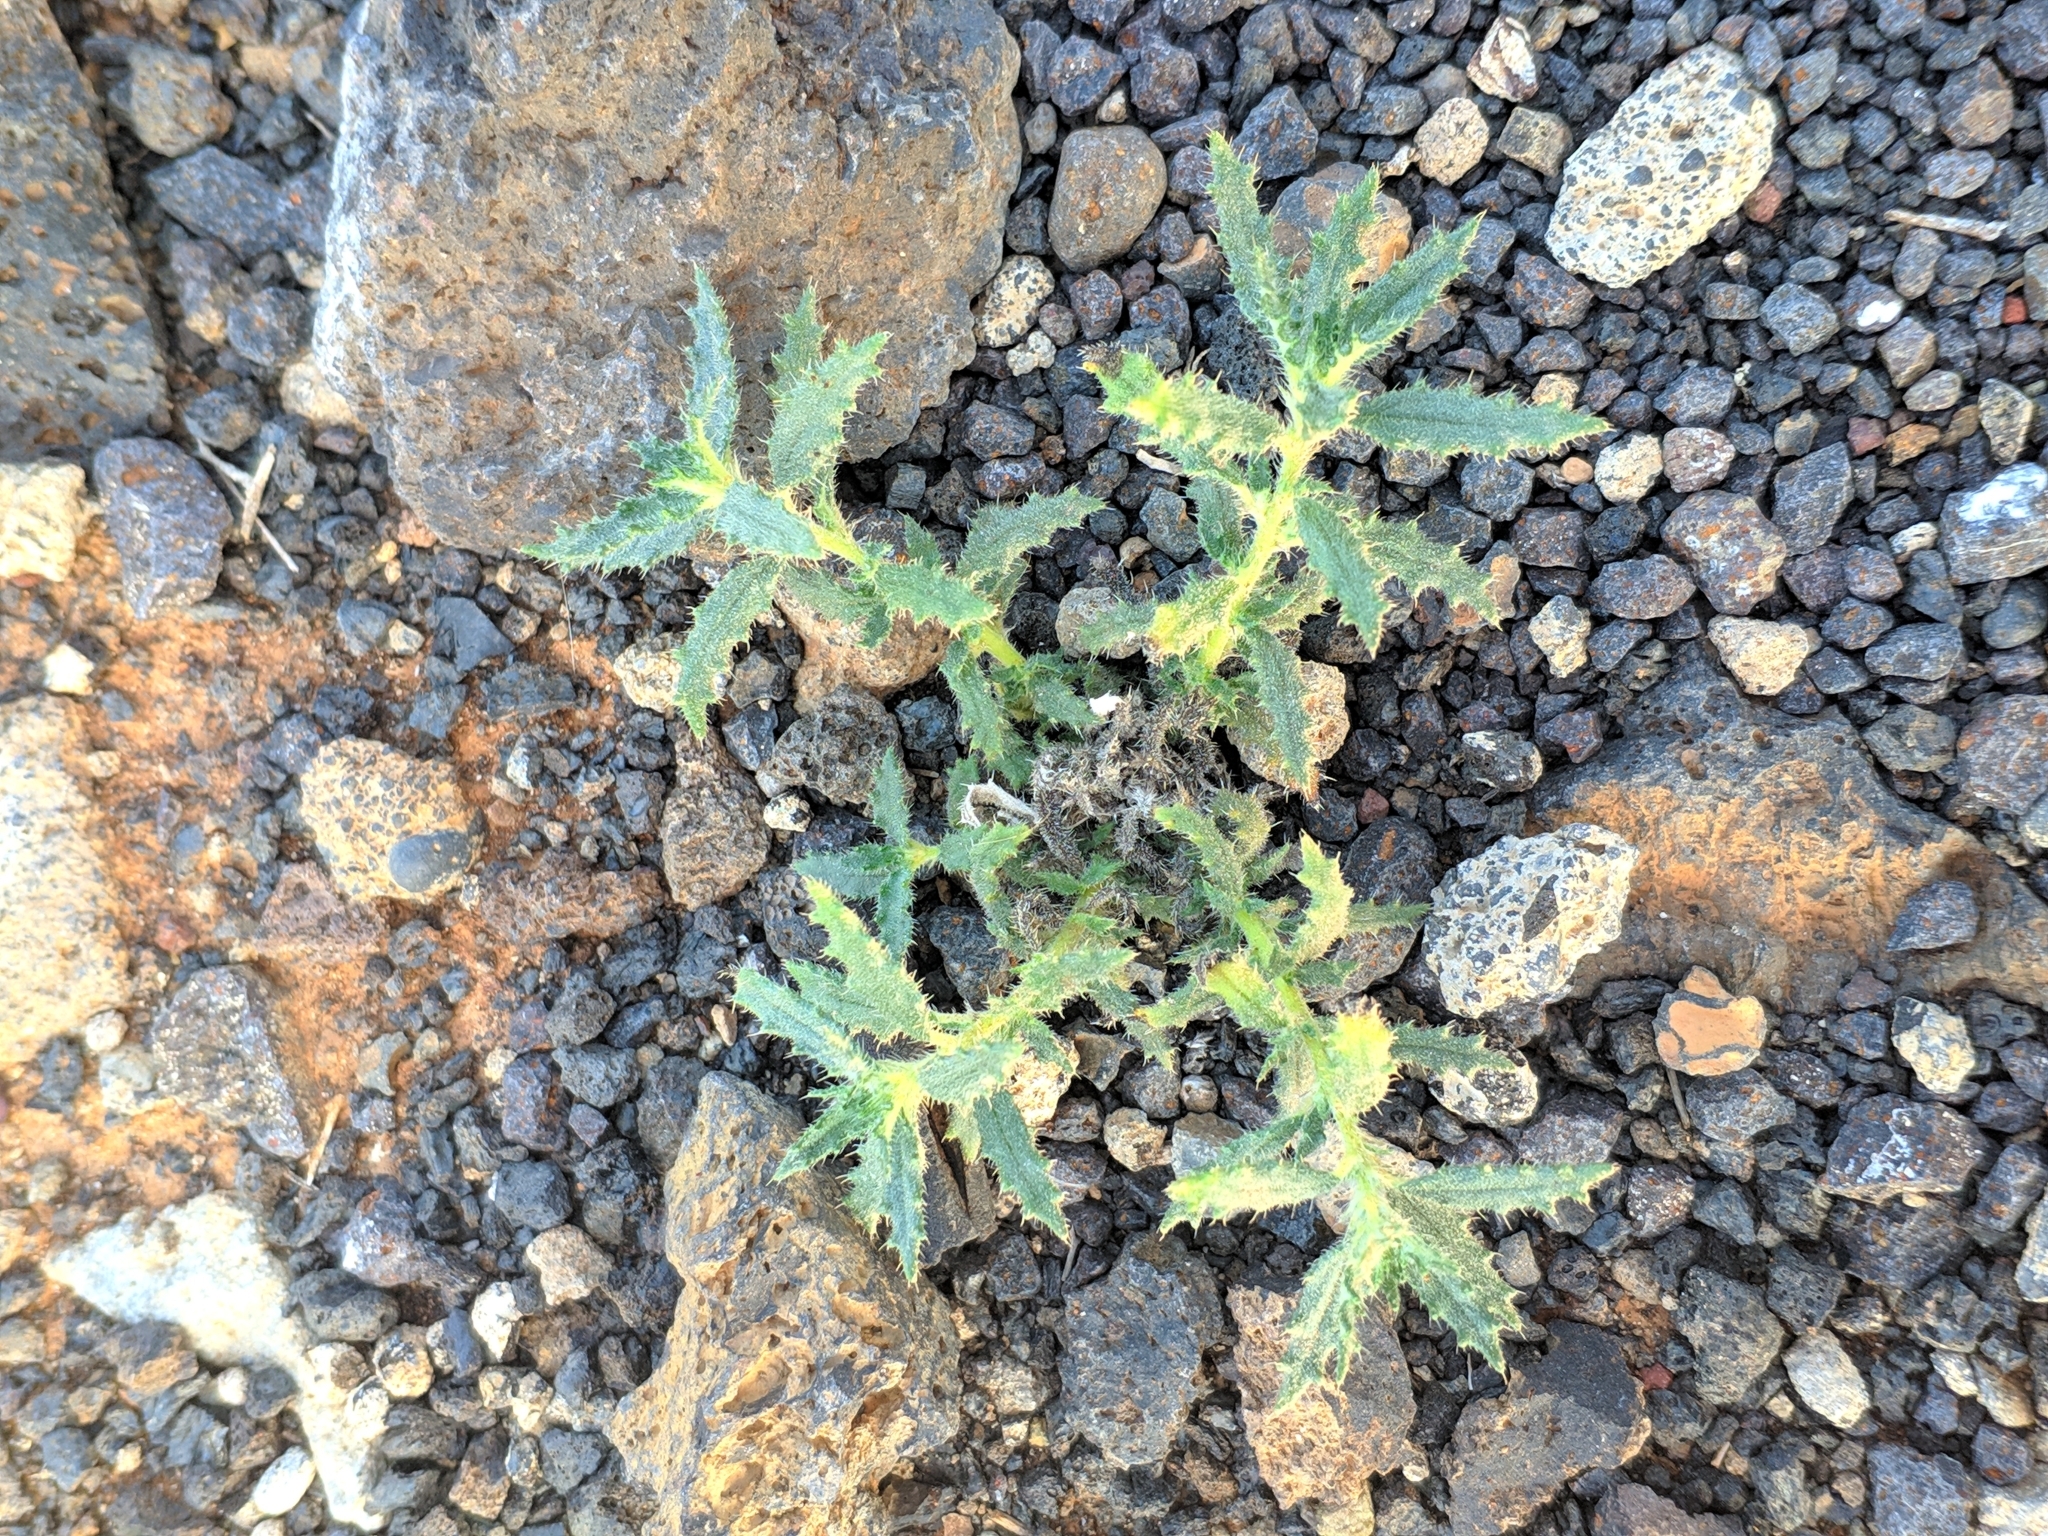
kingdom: Plantae
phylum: Tracheophyta
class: Magnoliopsida
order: Rosales
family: Urticaceae
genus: Forsskaolea
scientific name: Forsskaolea angustifolia
